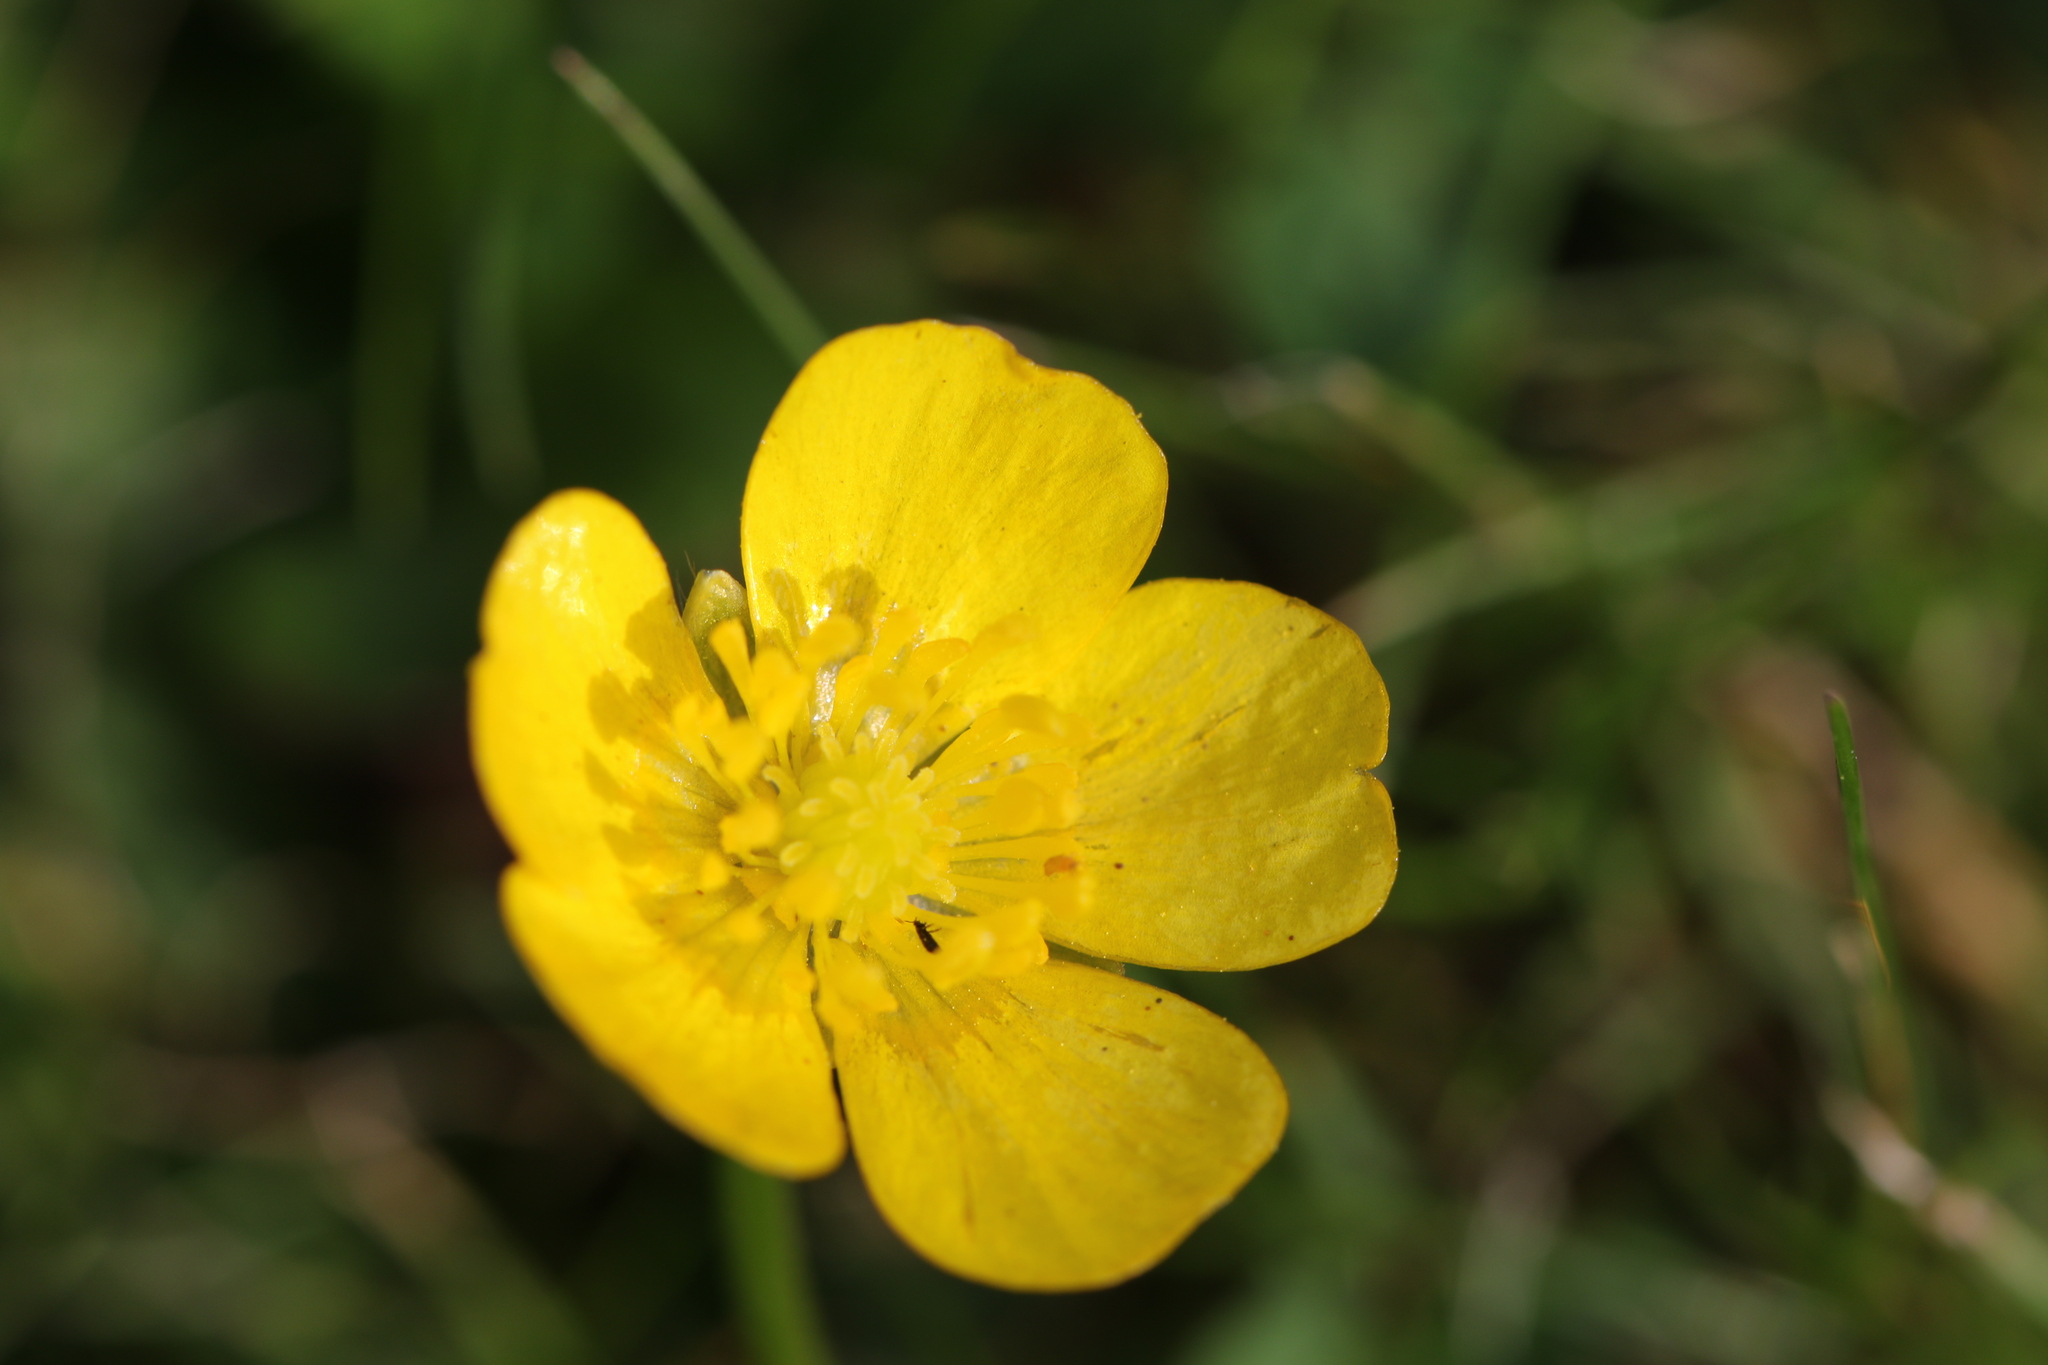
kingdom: Plantae
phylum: Tracheophyta
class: Magnoliopsida
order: Ranunculales
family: Ranunculaceae
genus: Ranunculus
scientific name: Ranunculus repens
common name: Creeping buttercup
